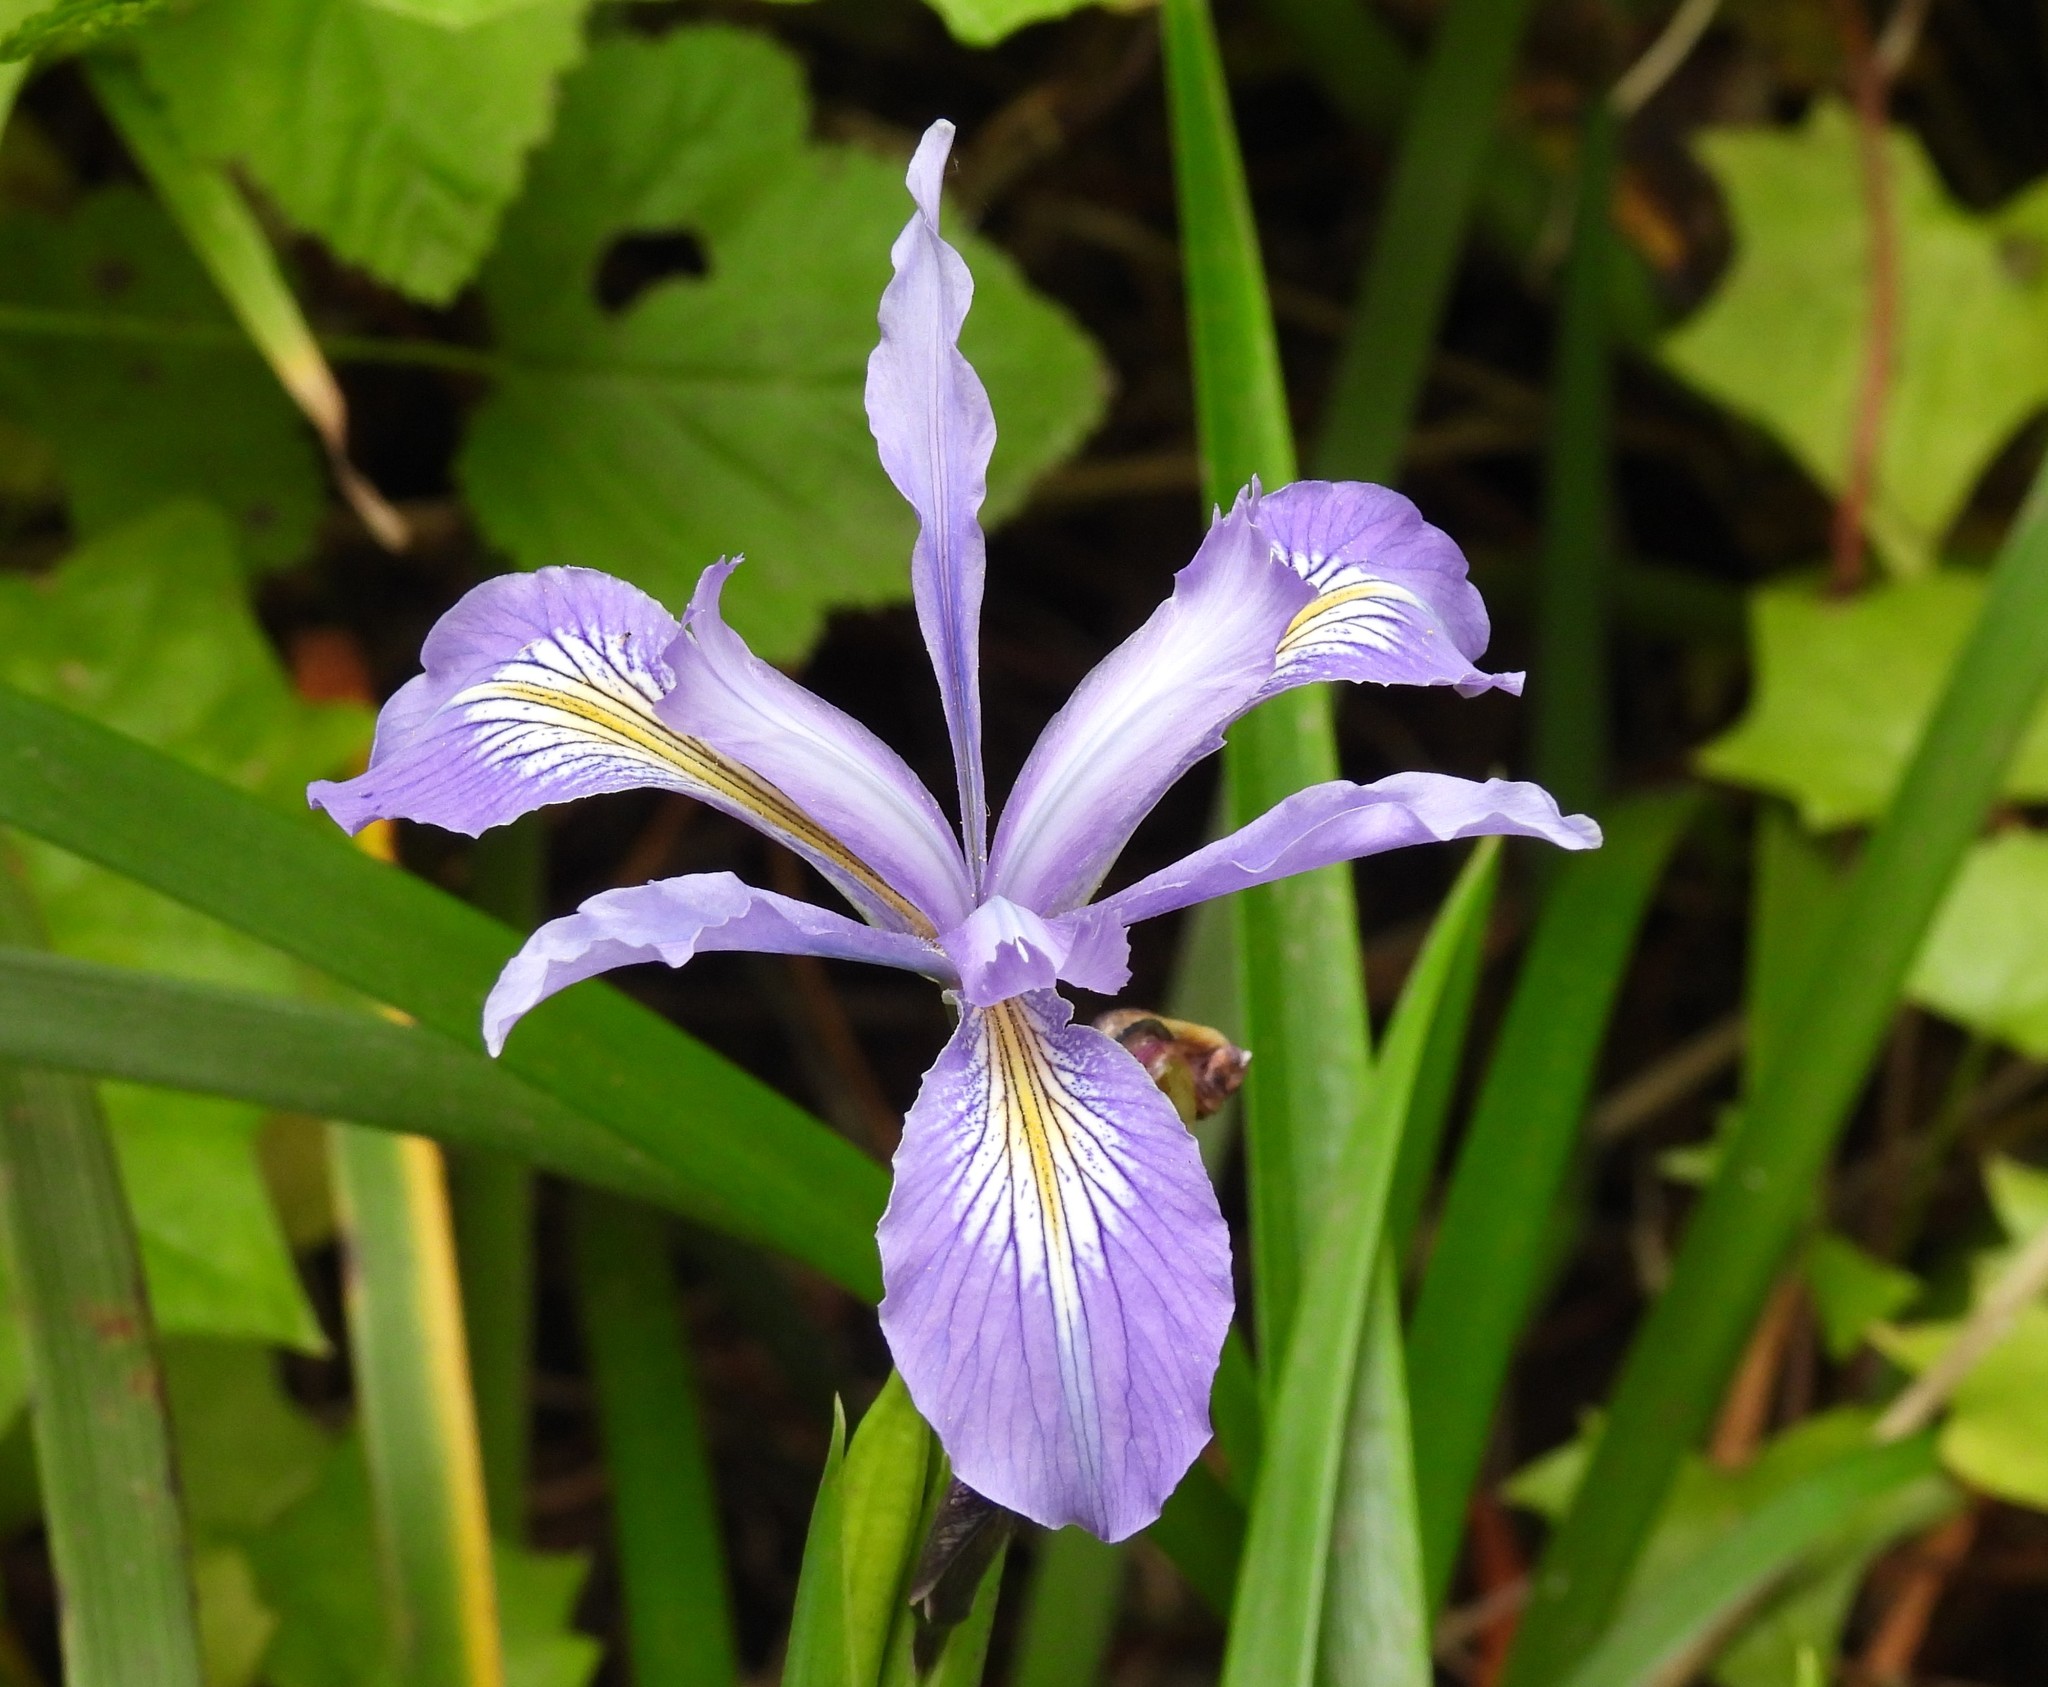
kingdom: Plantae
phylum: Tracheophyta
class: Liliopsida
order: Asparagales
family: Iridaceae
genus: Iris
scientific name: Iris douglasiana
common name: Marin iris
